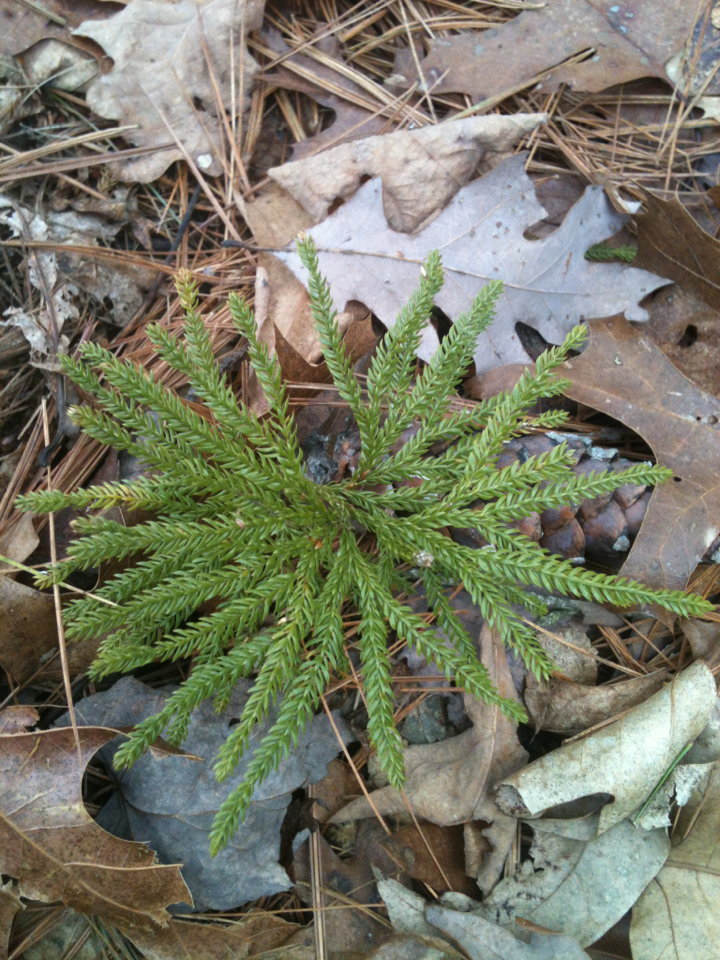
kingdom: Plantae
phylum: Tracheophyta
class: Lycopodiopsida
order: Lycopodiales
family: Lycopodiaceae
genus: Dendrolycopodium
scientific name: Dendrolycopodium obscurum
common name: Common ground-pine
